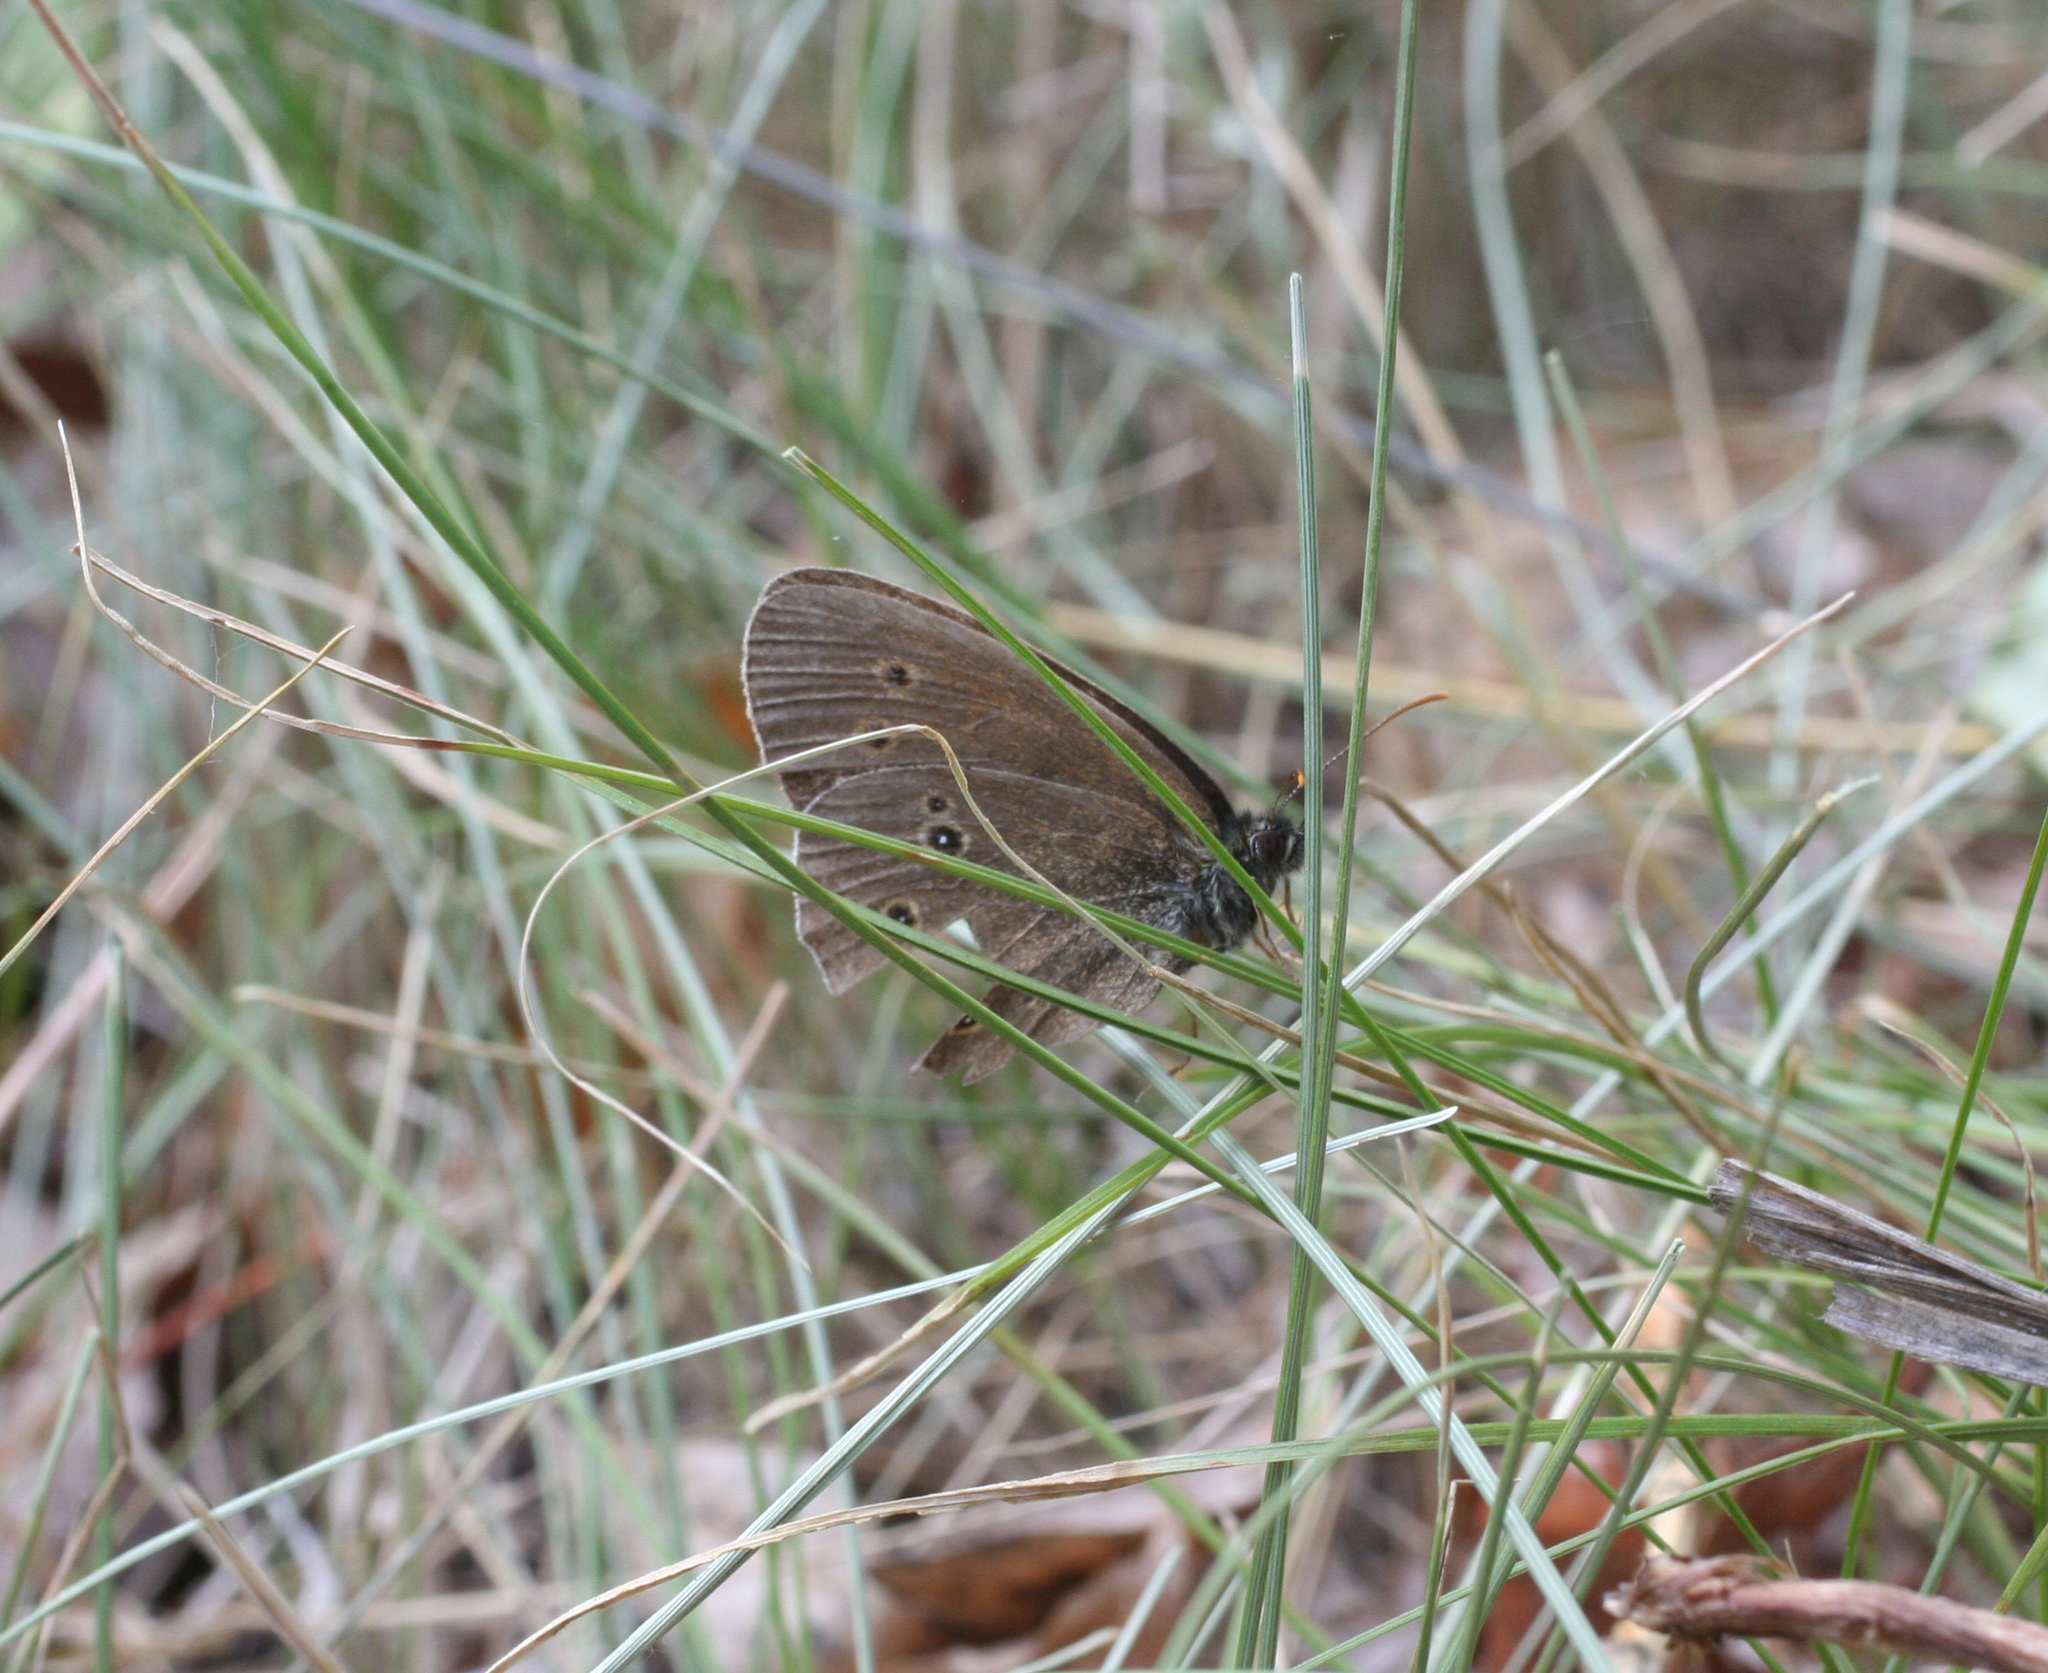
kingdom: Animalia
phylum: Arthropoda
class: Insecta
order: Lepidoptera
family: Nymphalidae
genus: Aphantopus
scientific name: Aphantopus hyperantus
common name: Ringlet
